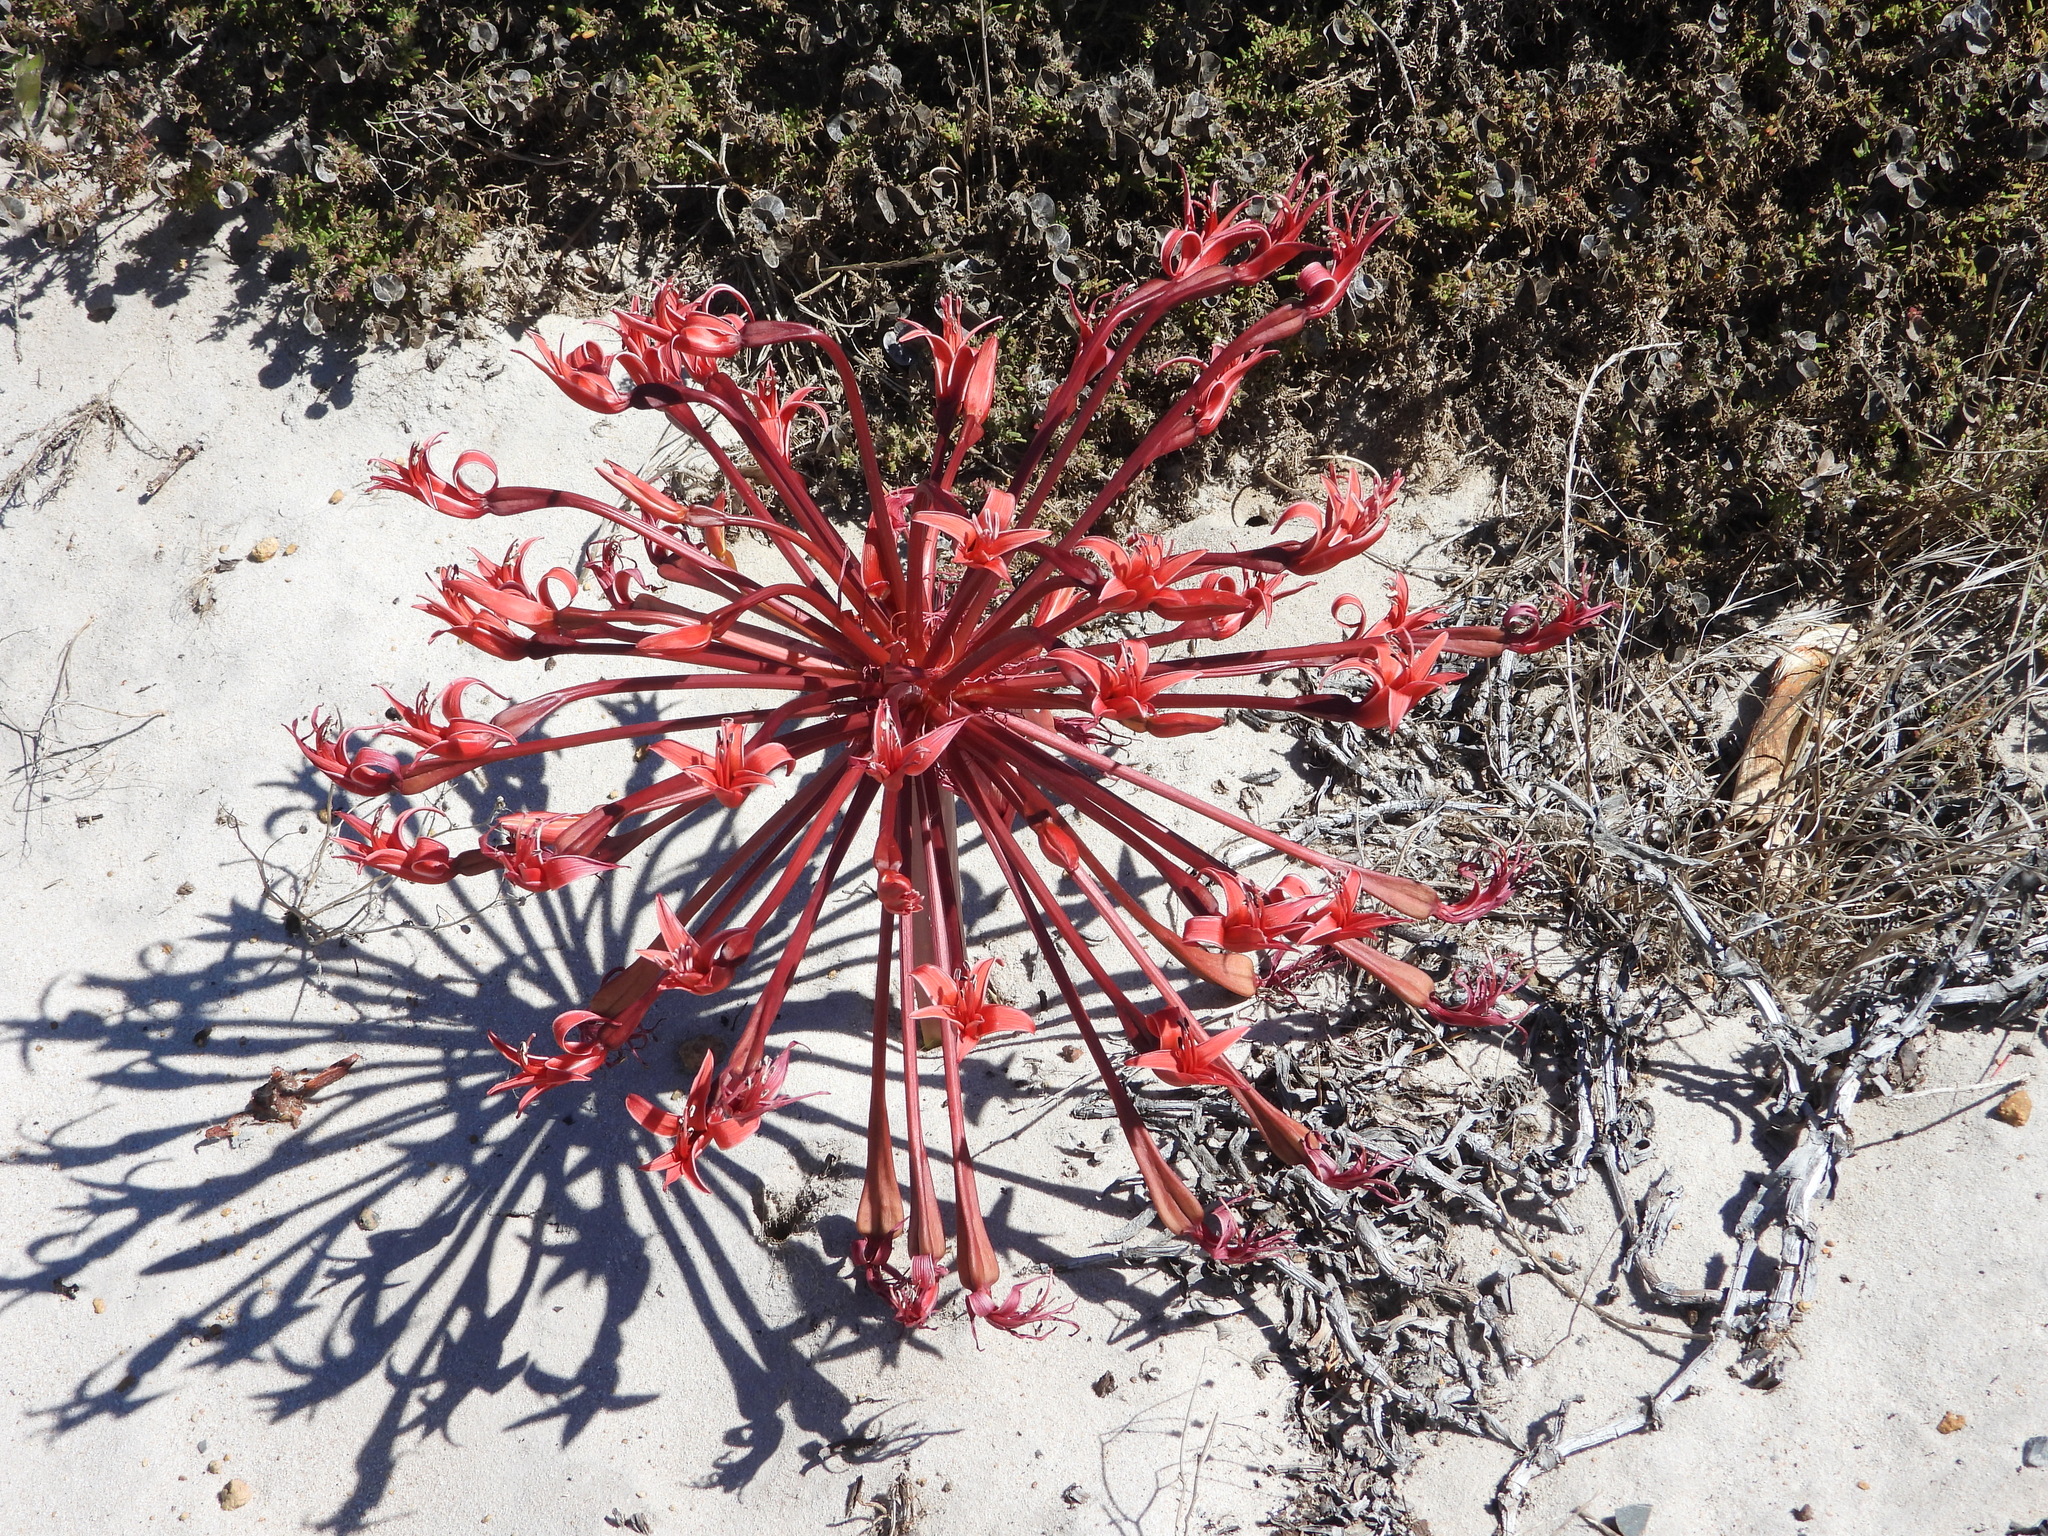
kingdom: Plantae
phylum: Tracheophyta
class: Liliopsida
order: Asparagales
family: Amaryllidaceae
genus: Brunsvigia
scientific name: Brunsvigia orientalis
